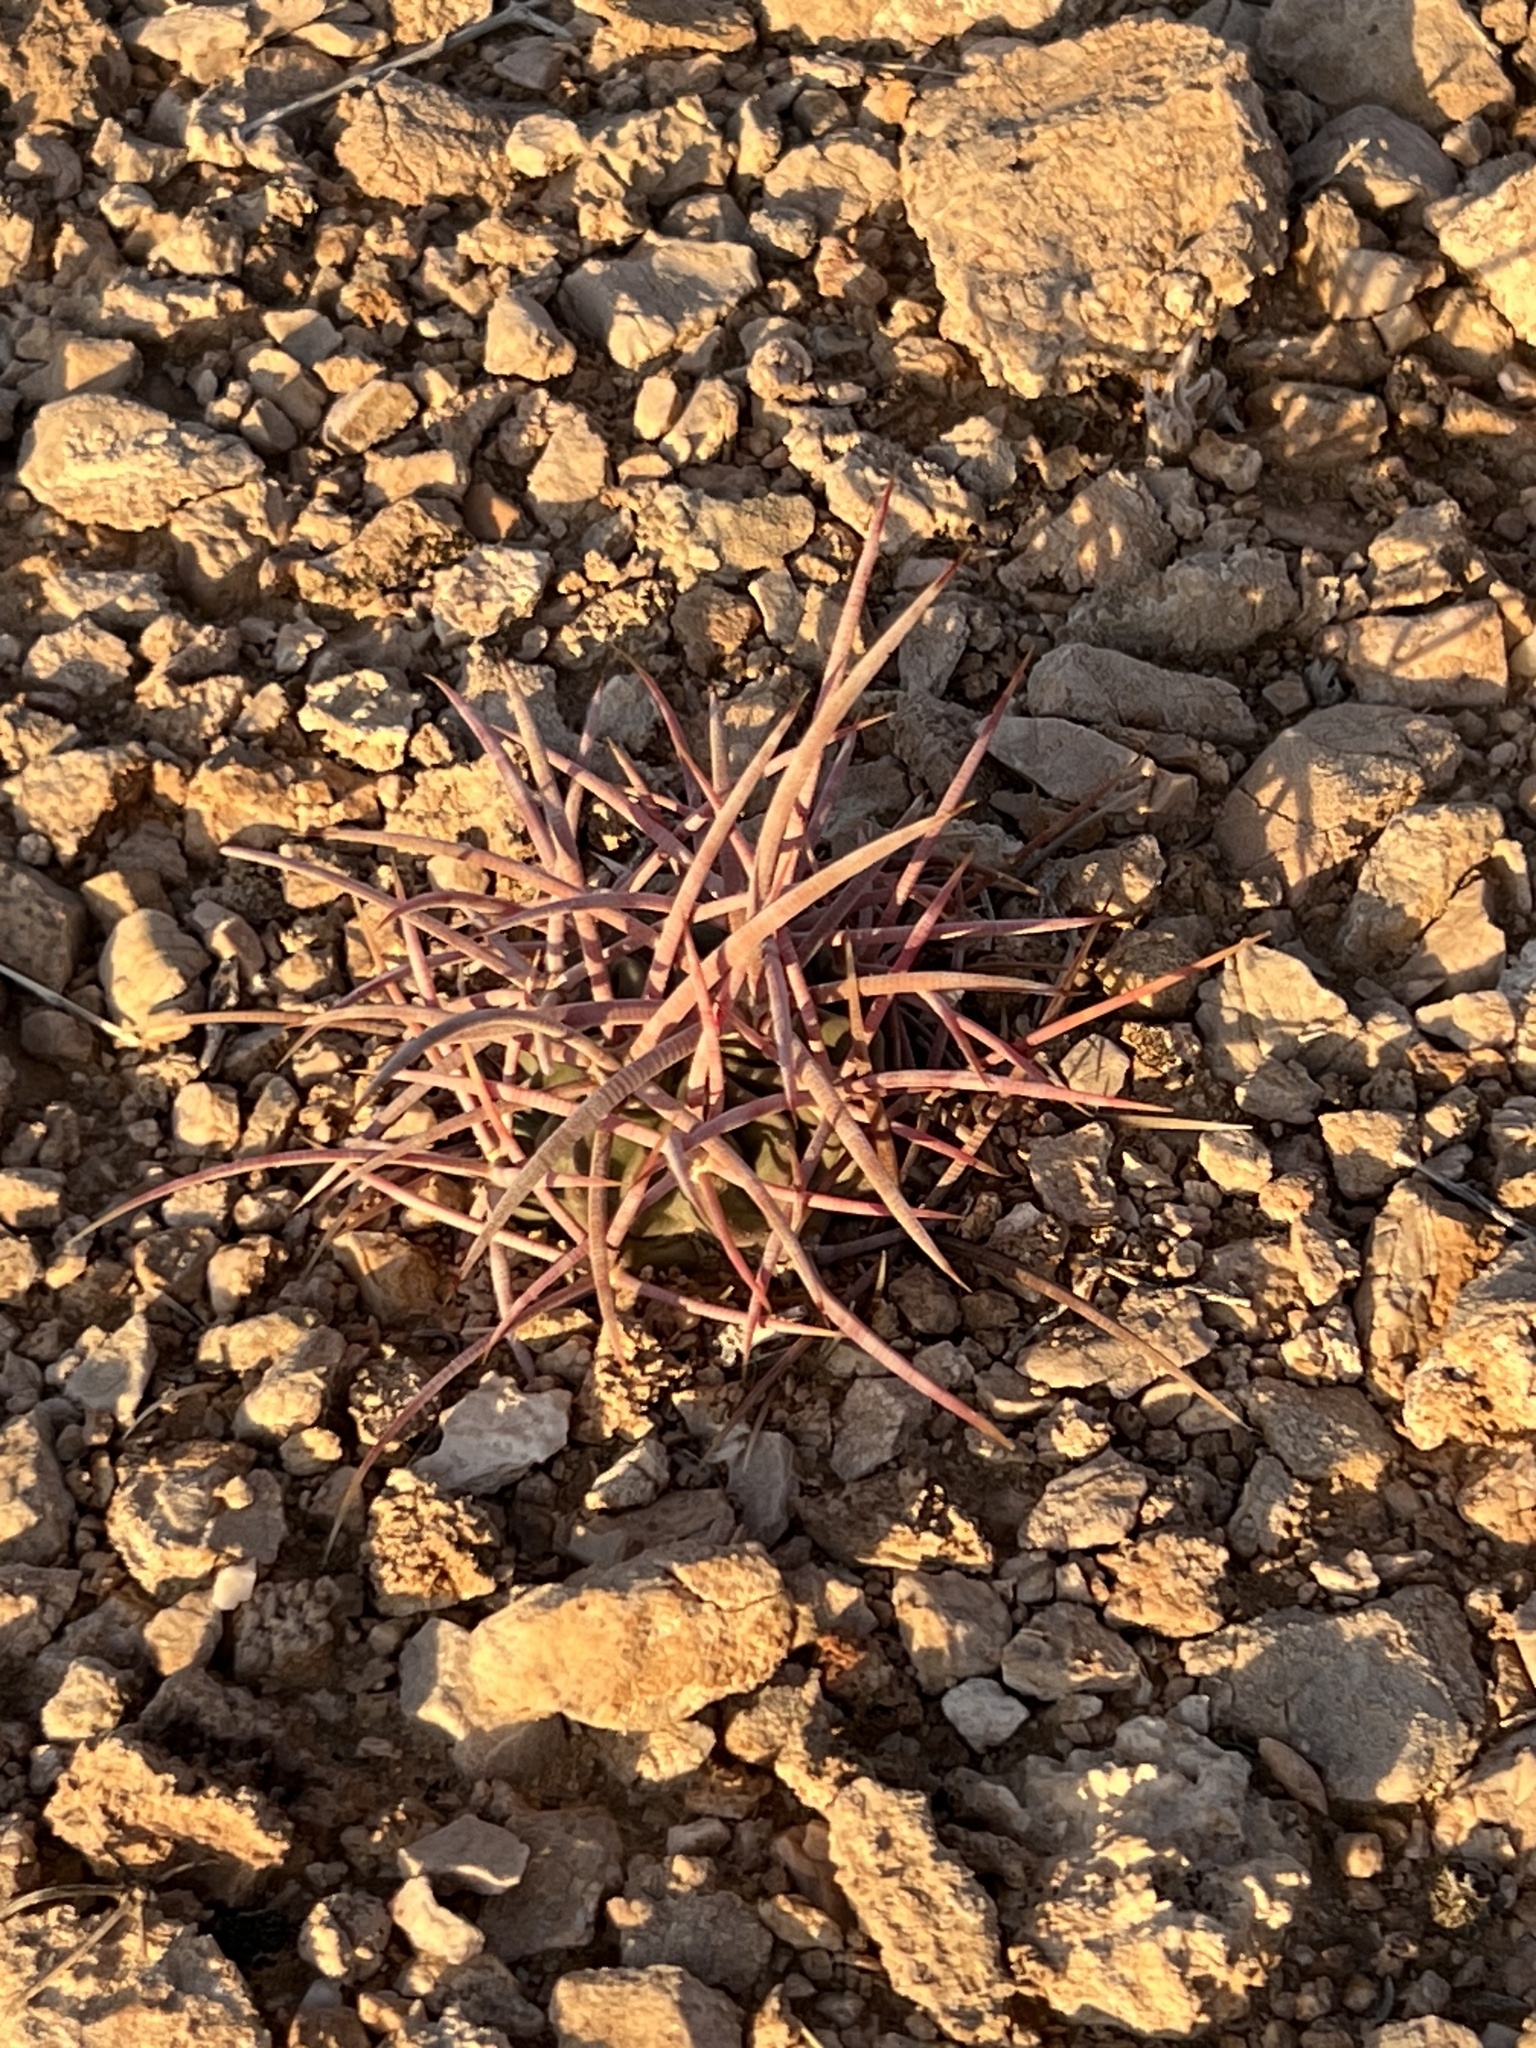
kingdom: Plantae
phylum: Tracheophyta
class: Magnoliopsida
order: Caryophyllales
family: Cactaceae
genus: Echinocactus
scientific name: Echinocactus polycephalus
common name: Cottontop cactus
